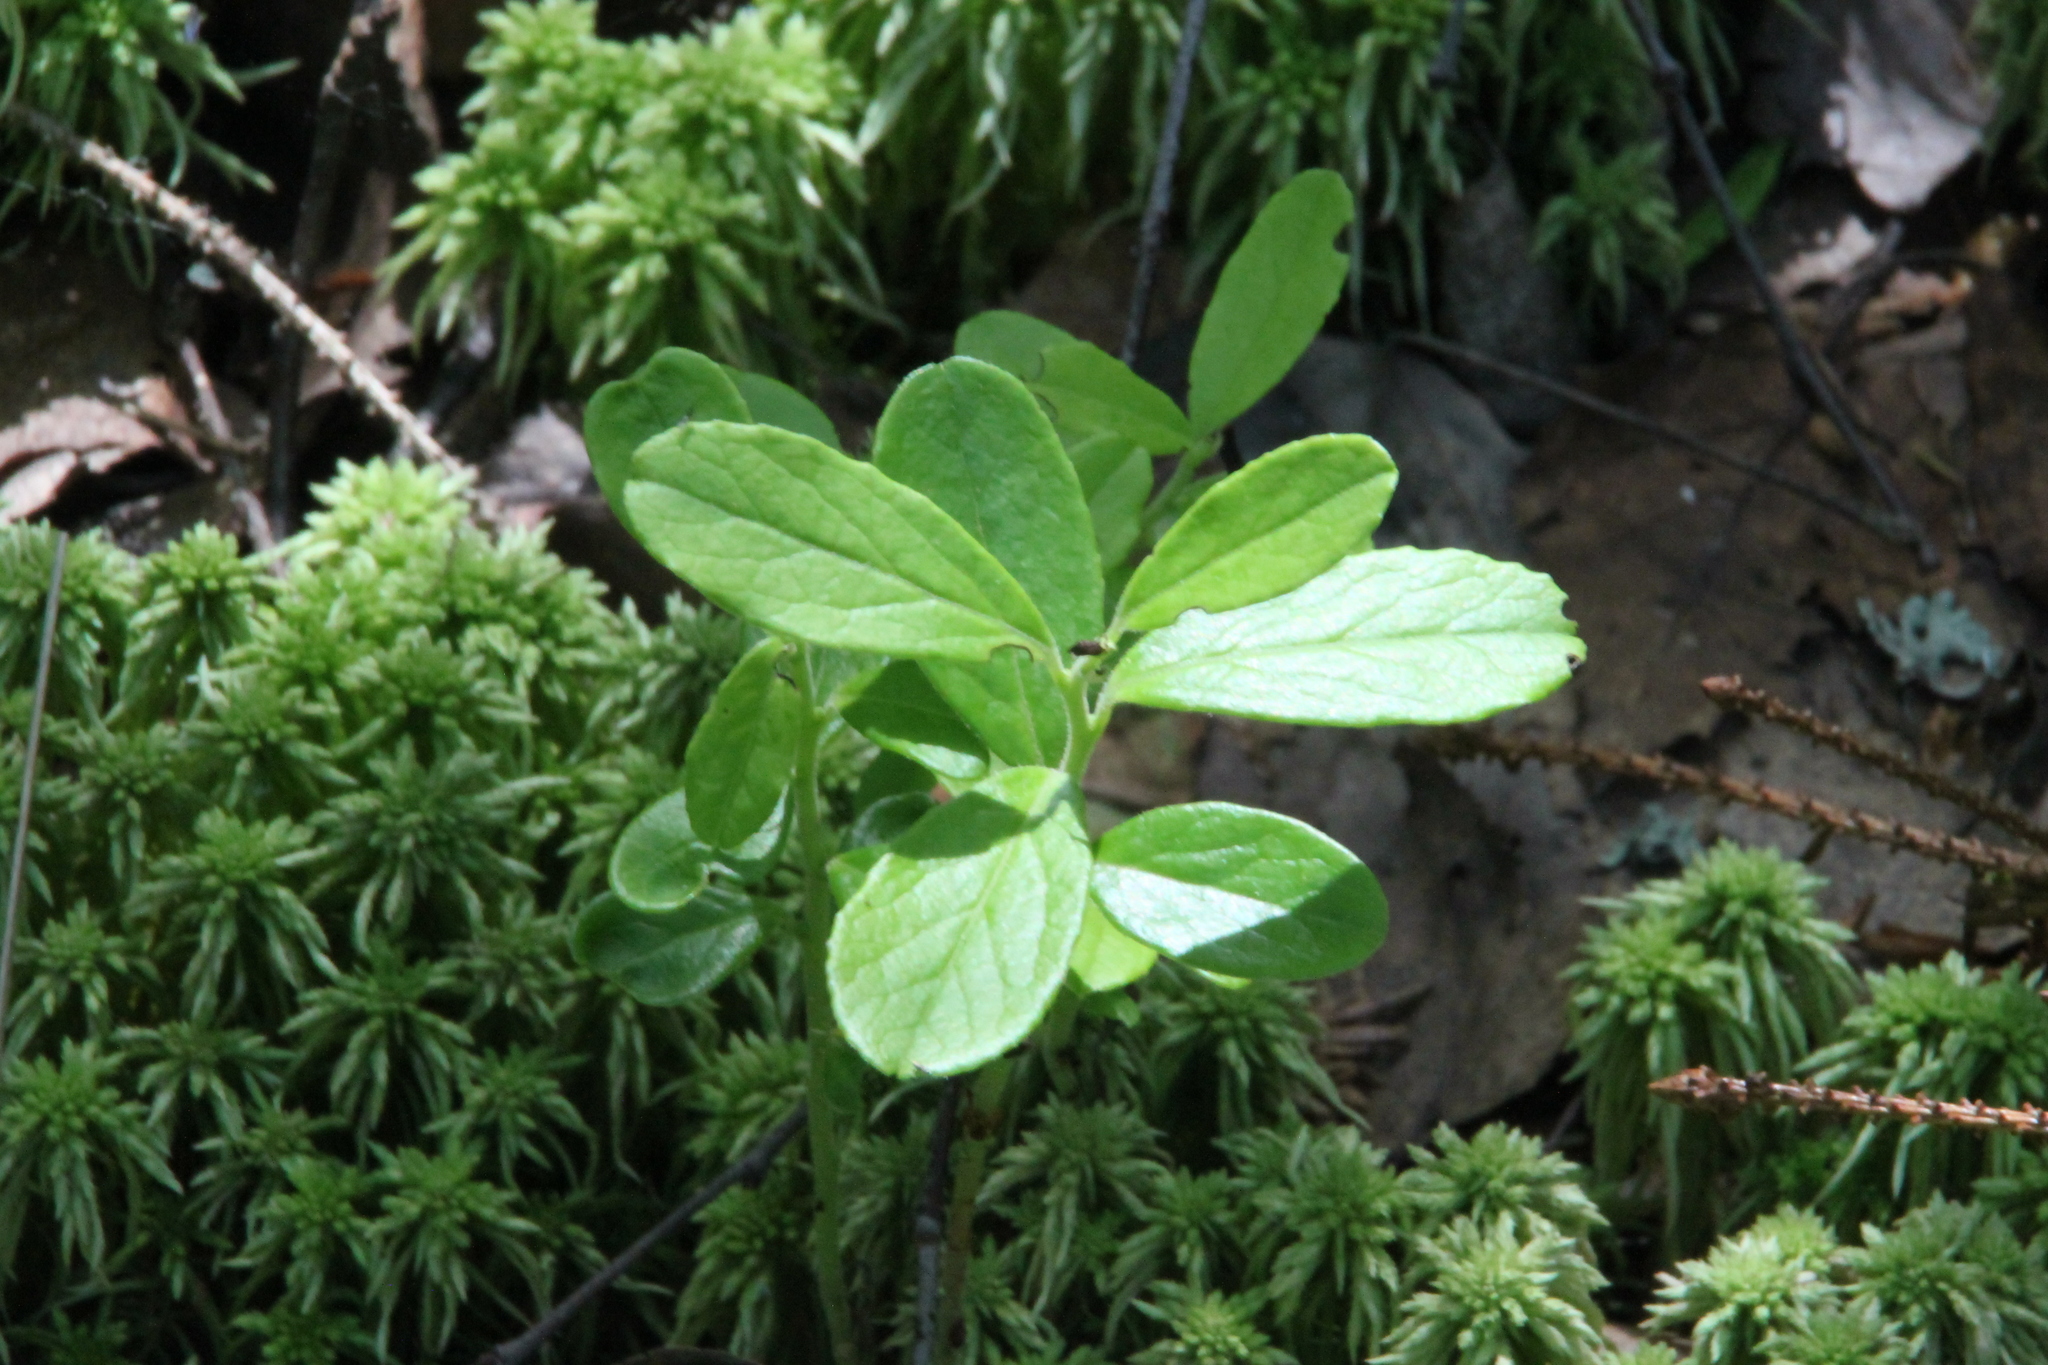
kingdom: Plantae
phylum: Tracheophyta
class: Magnoliopsida
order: Ericales
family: Ericaceae
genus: Vaccinium
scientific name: Vaccinium vitis-idaea
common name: Cowberry
